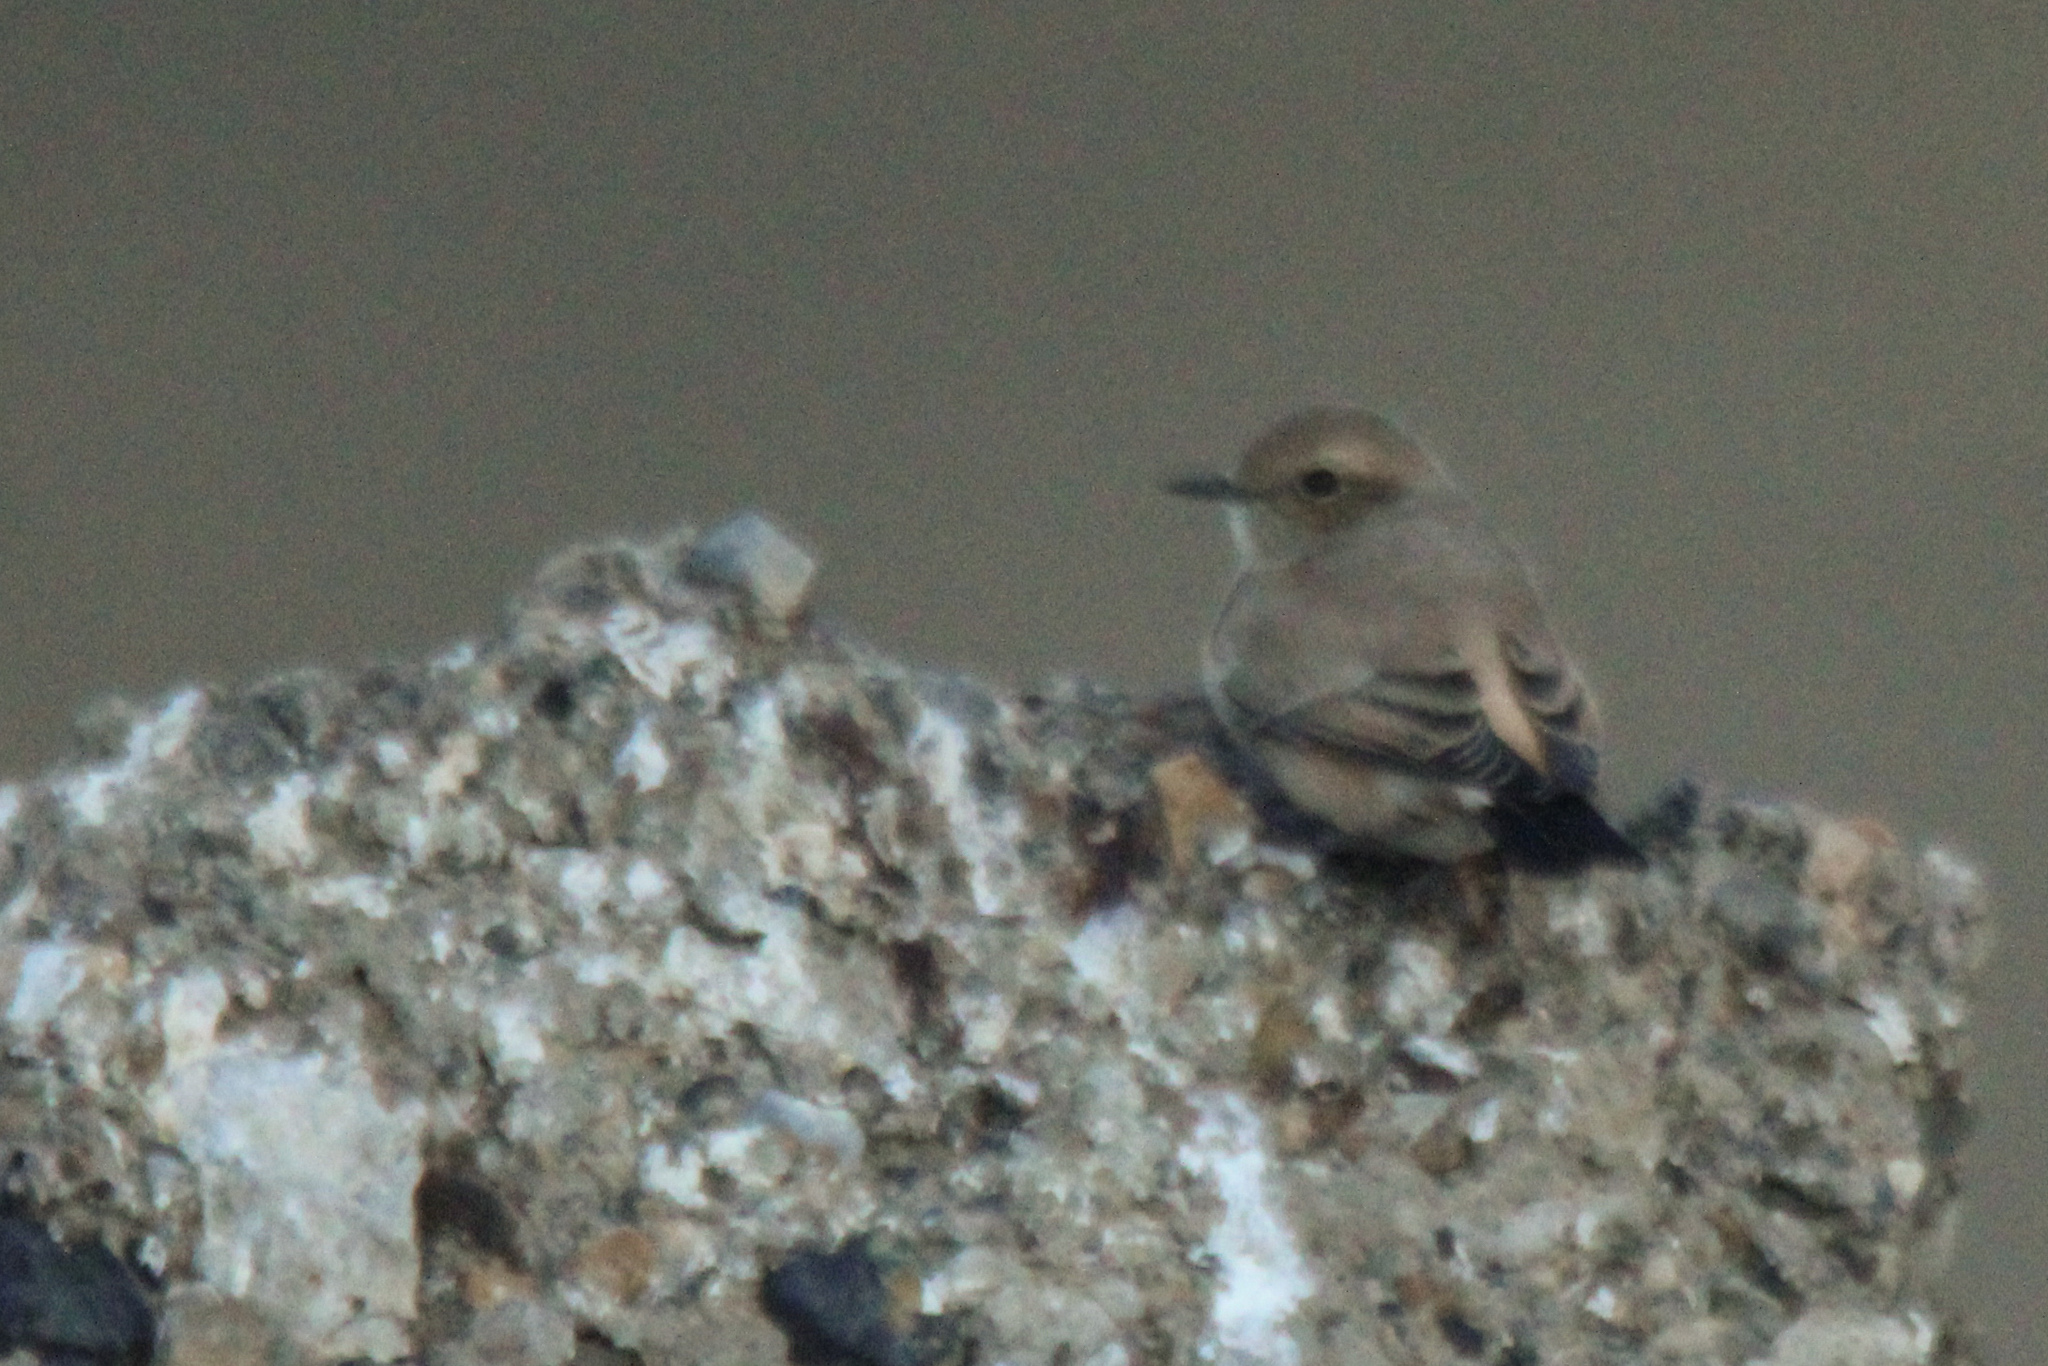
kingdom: Animalia
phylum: Chordata
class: Aves
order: Passeriformes
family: Muscicapidae
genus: Oenanthe
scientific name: Oenanthe deserti
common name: Desert wheatear
